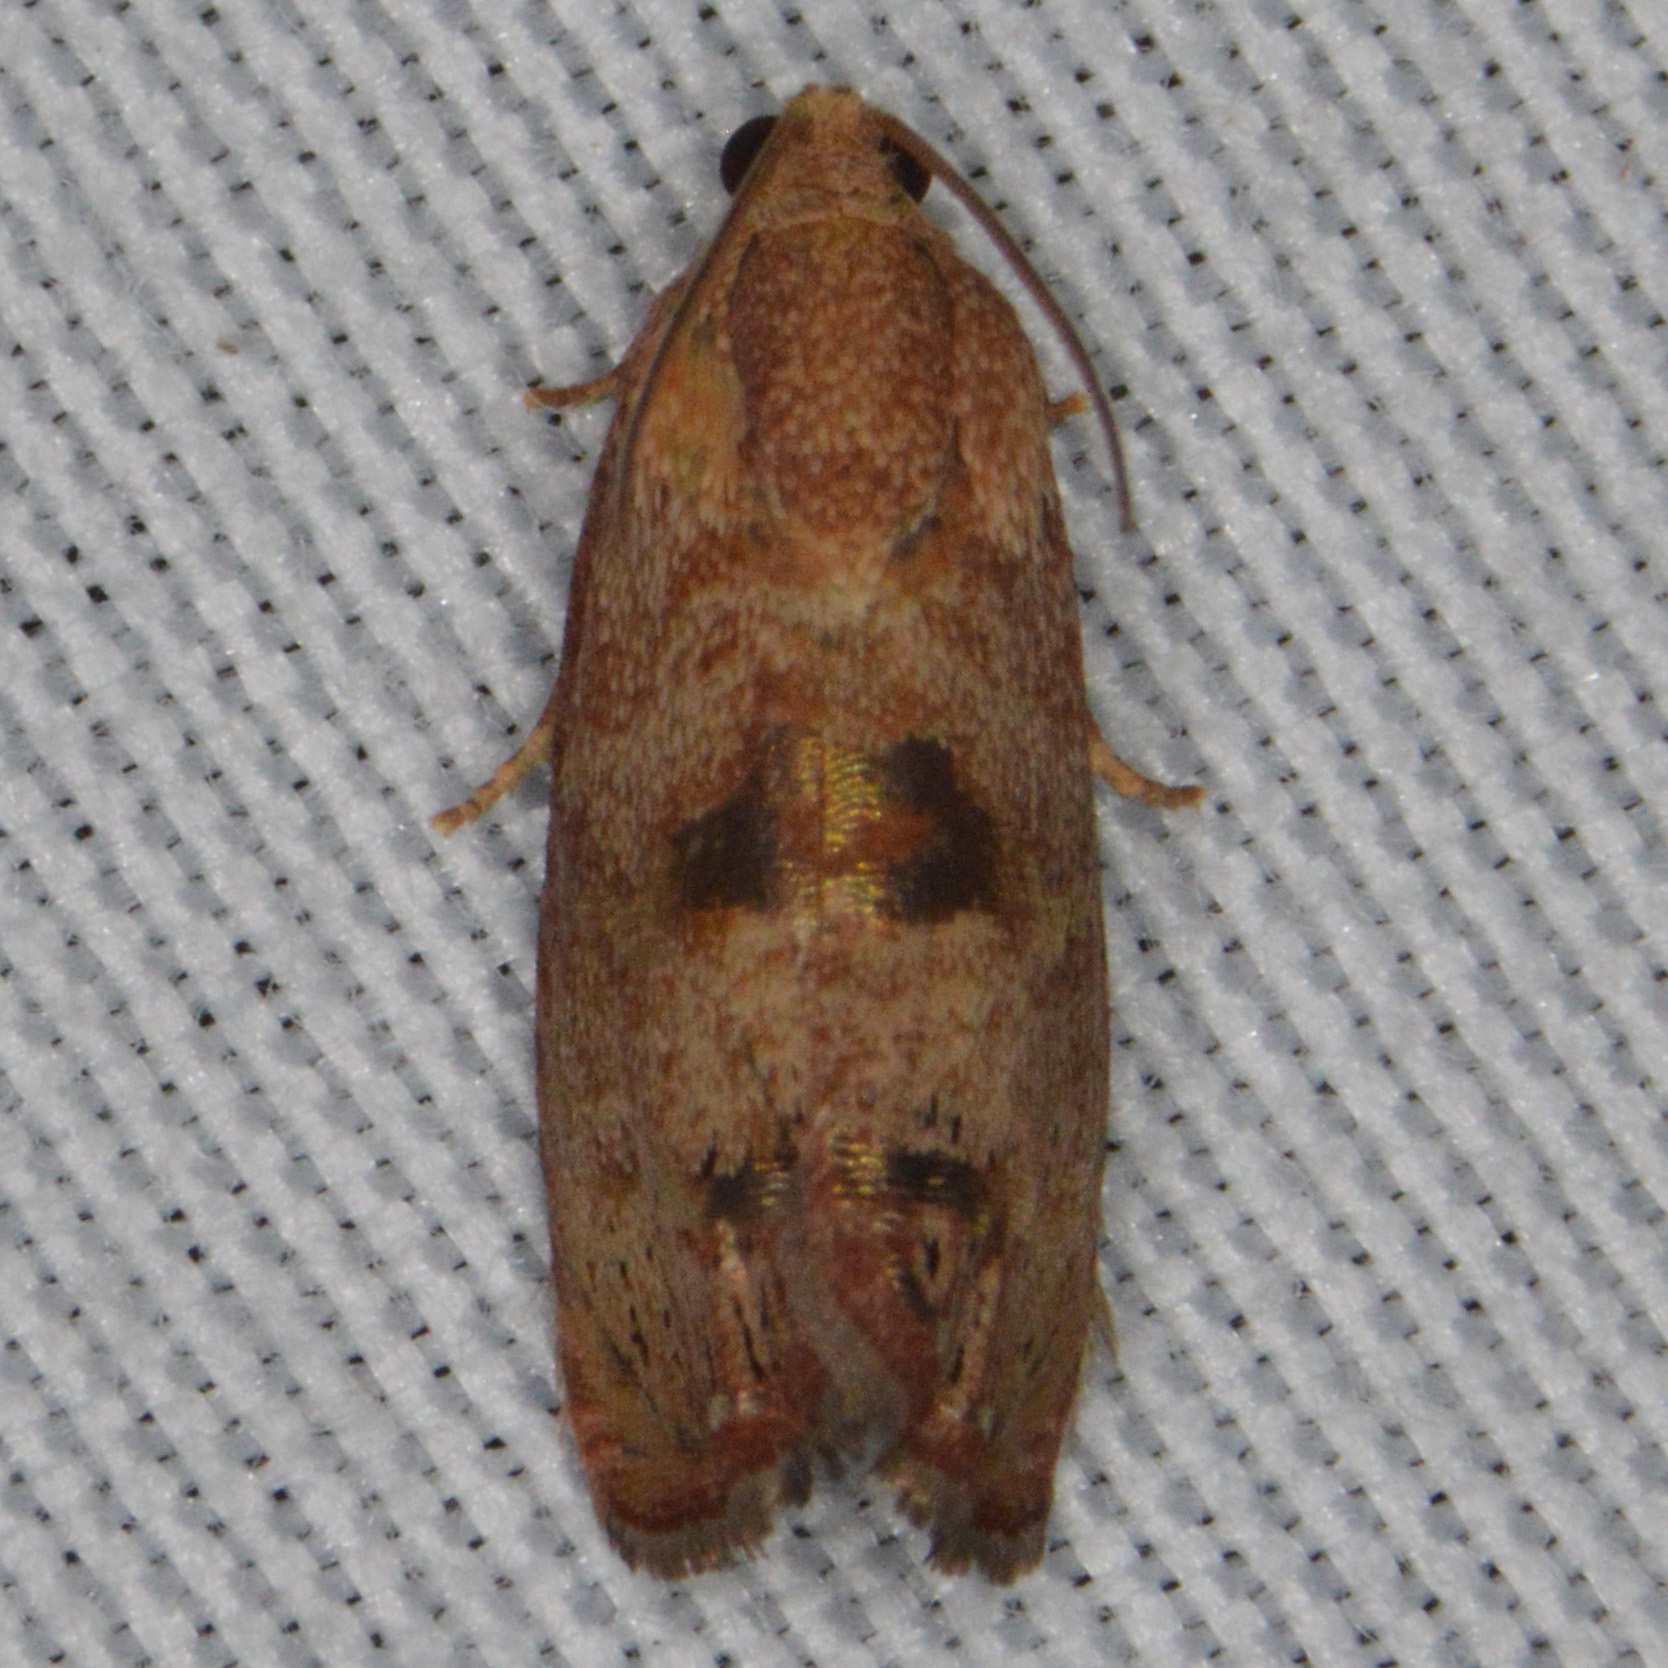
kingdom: Animalia
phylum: Arthropoda
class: Insecta
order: Lepidoptera
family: Tortricidae
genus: Cydia
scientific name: Cydia latiferreana
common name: Filbertworm moth
